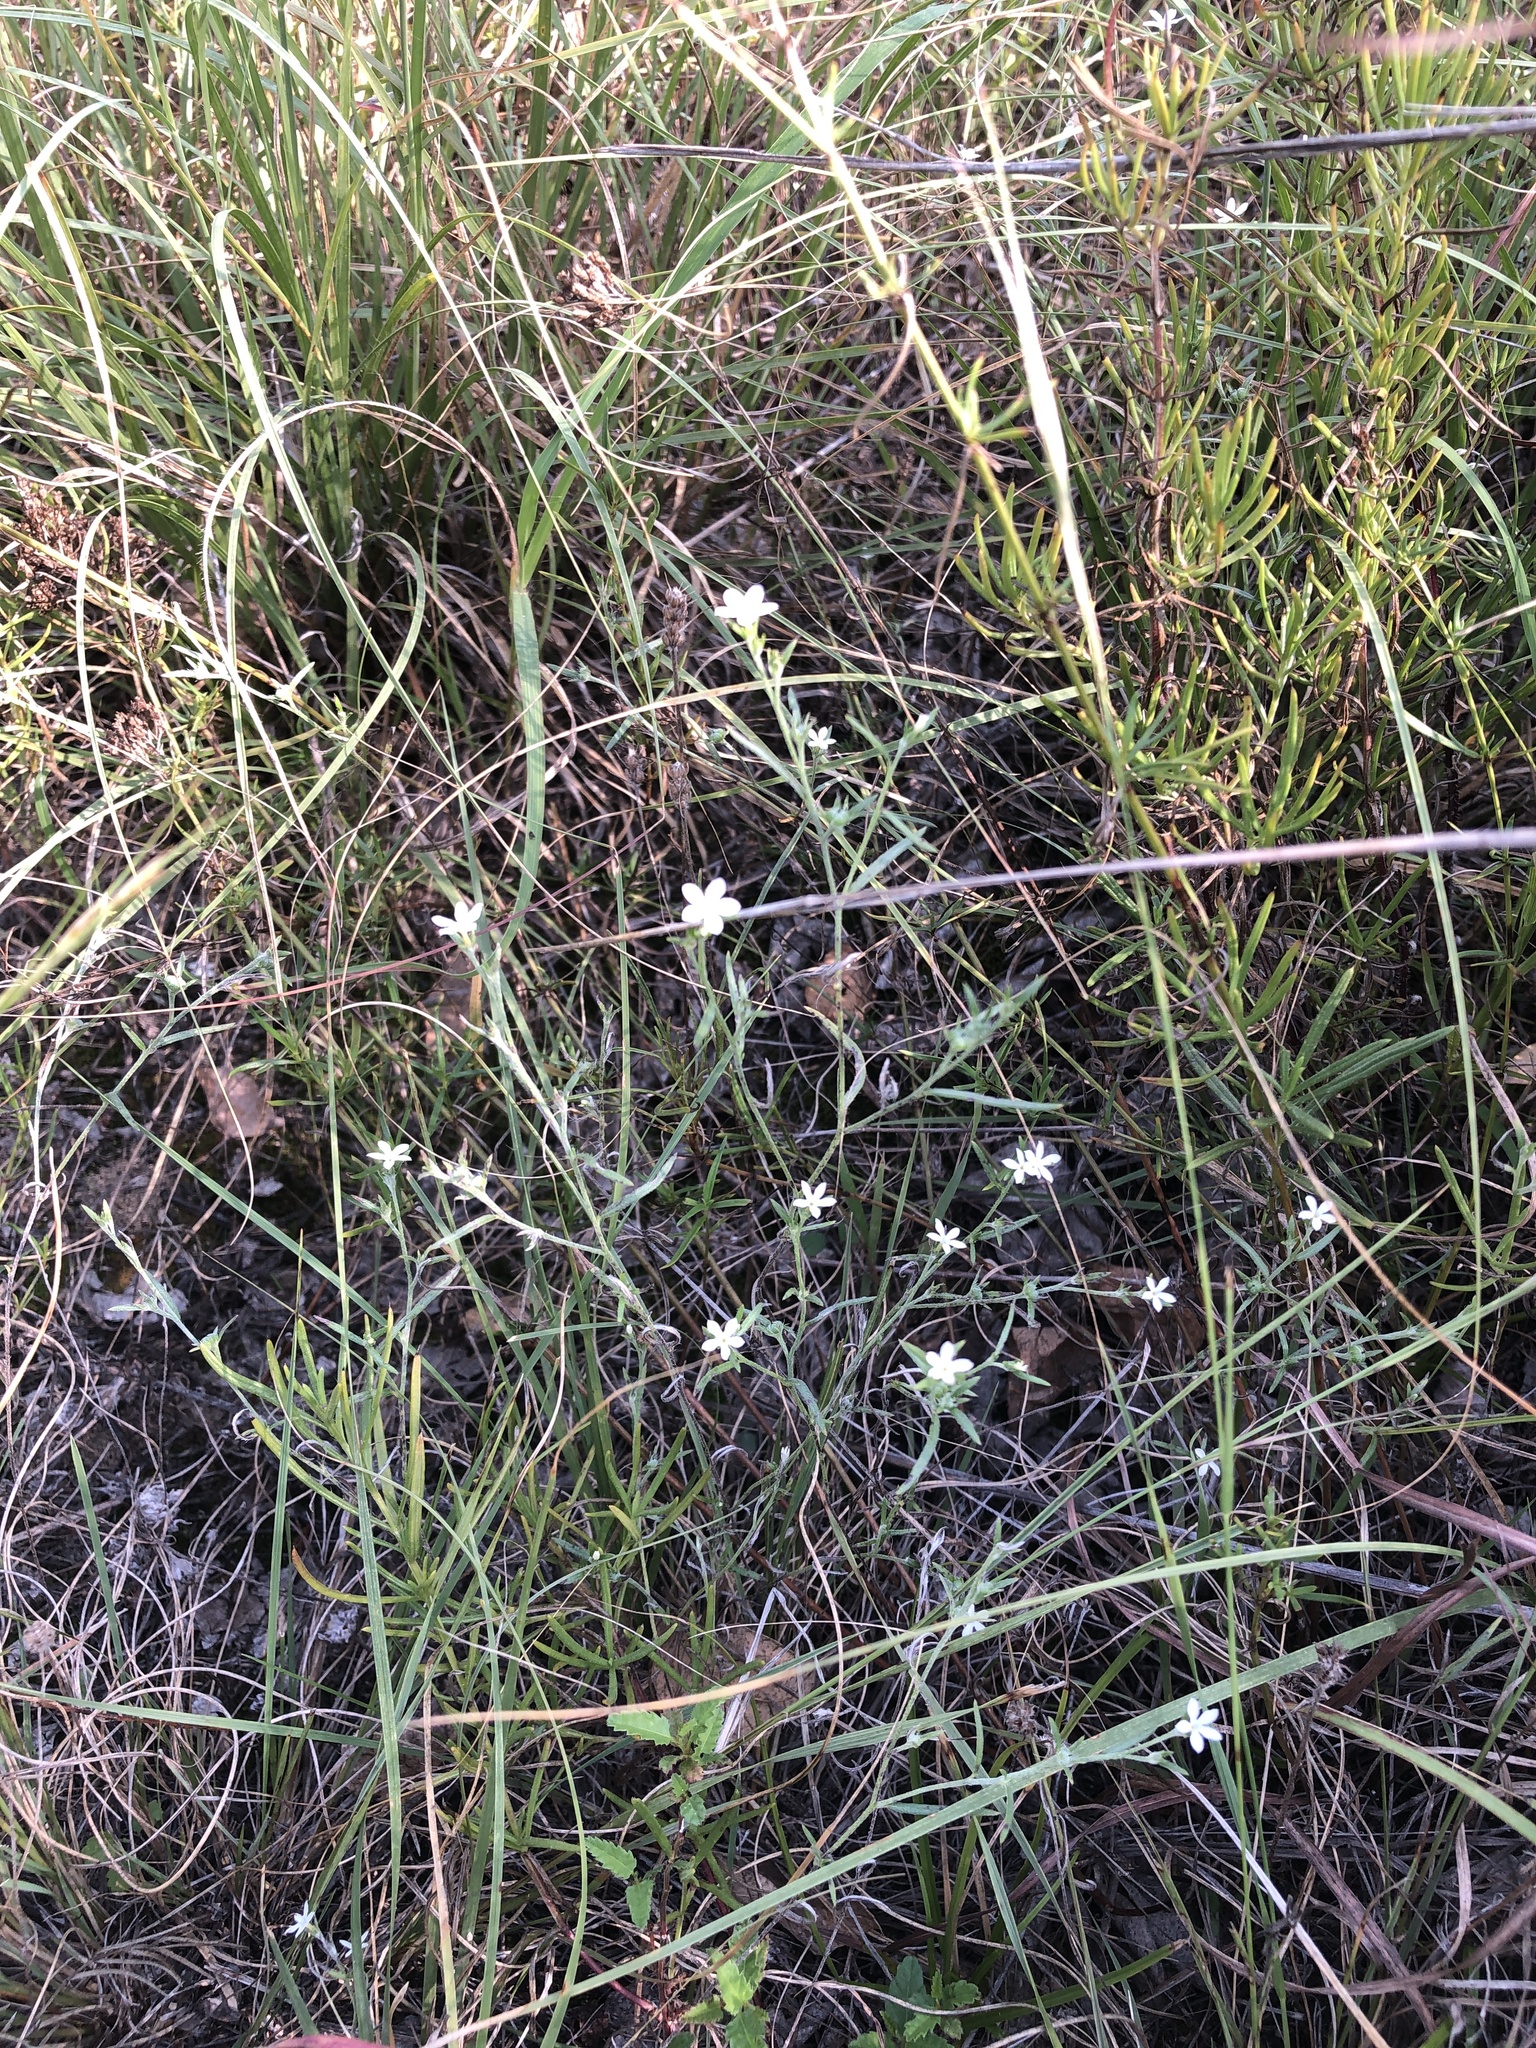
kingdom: Plantae
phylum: Tracheophyta
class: Magnoliopsida
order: Boraginales
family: Heliotropiaceae
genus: Euploca
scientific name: Euploca tenella
